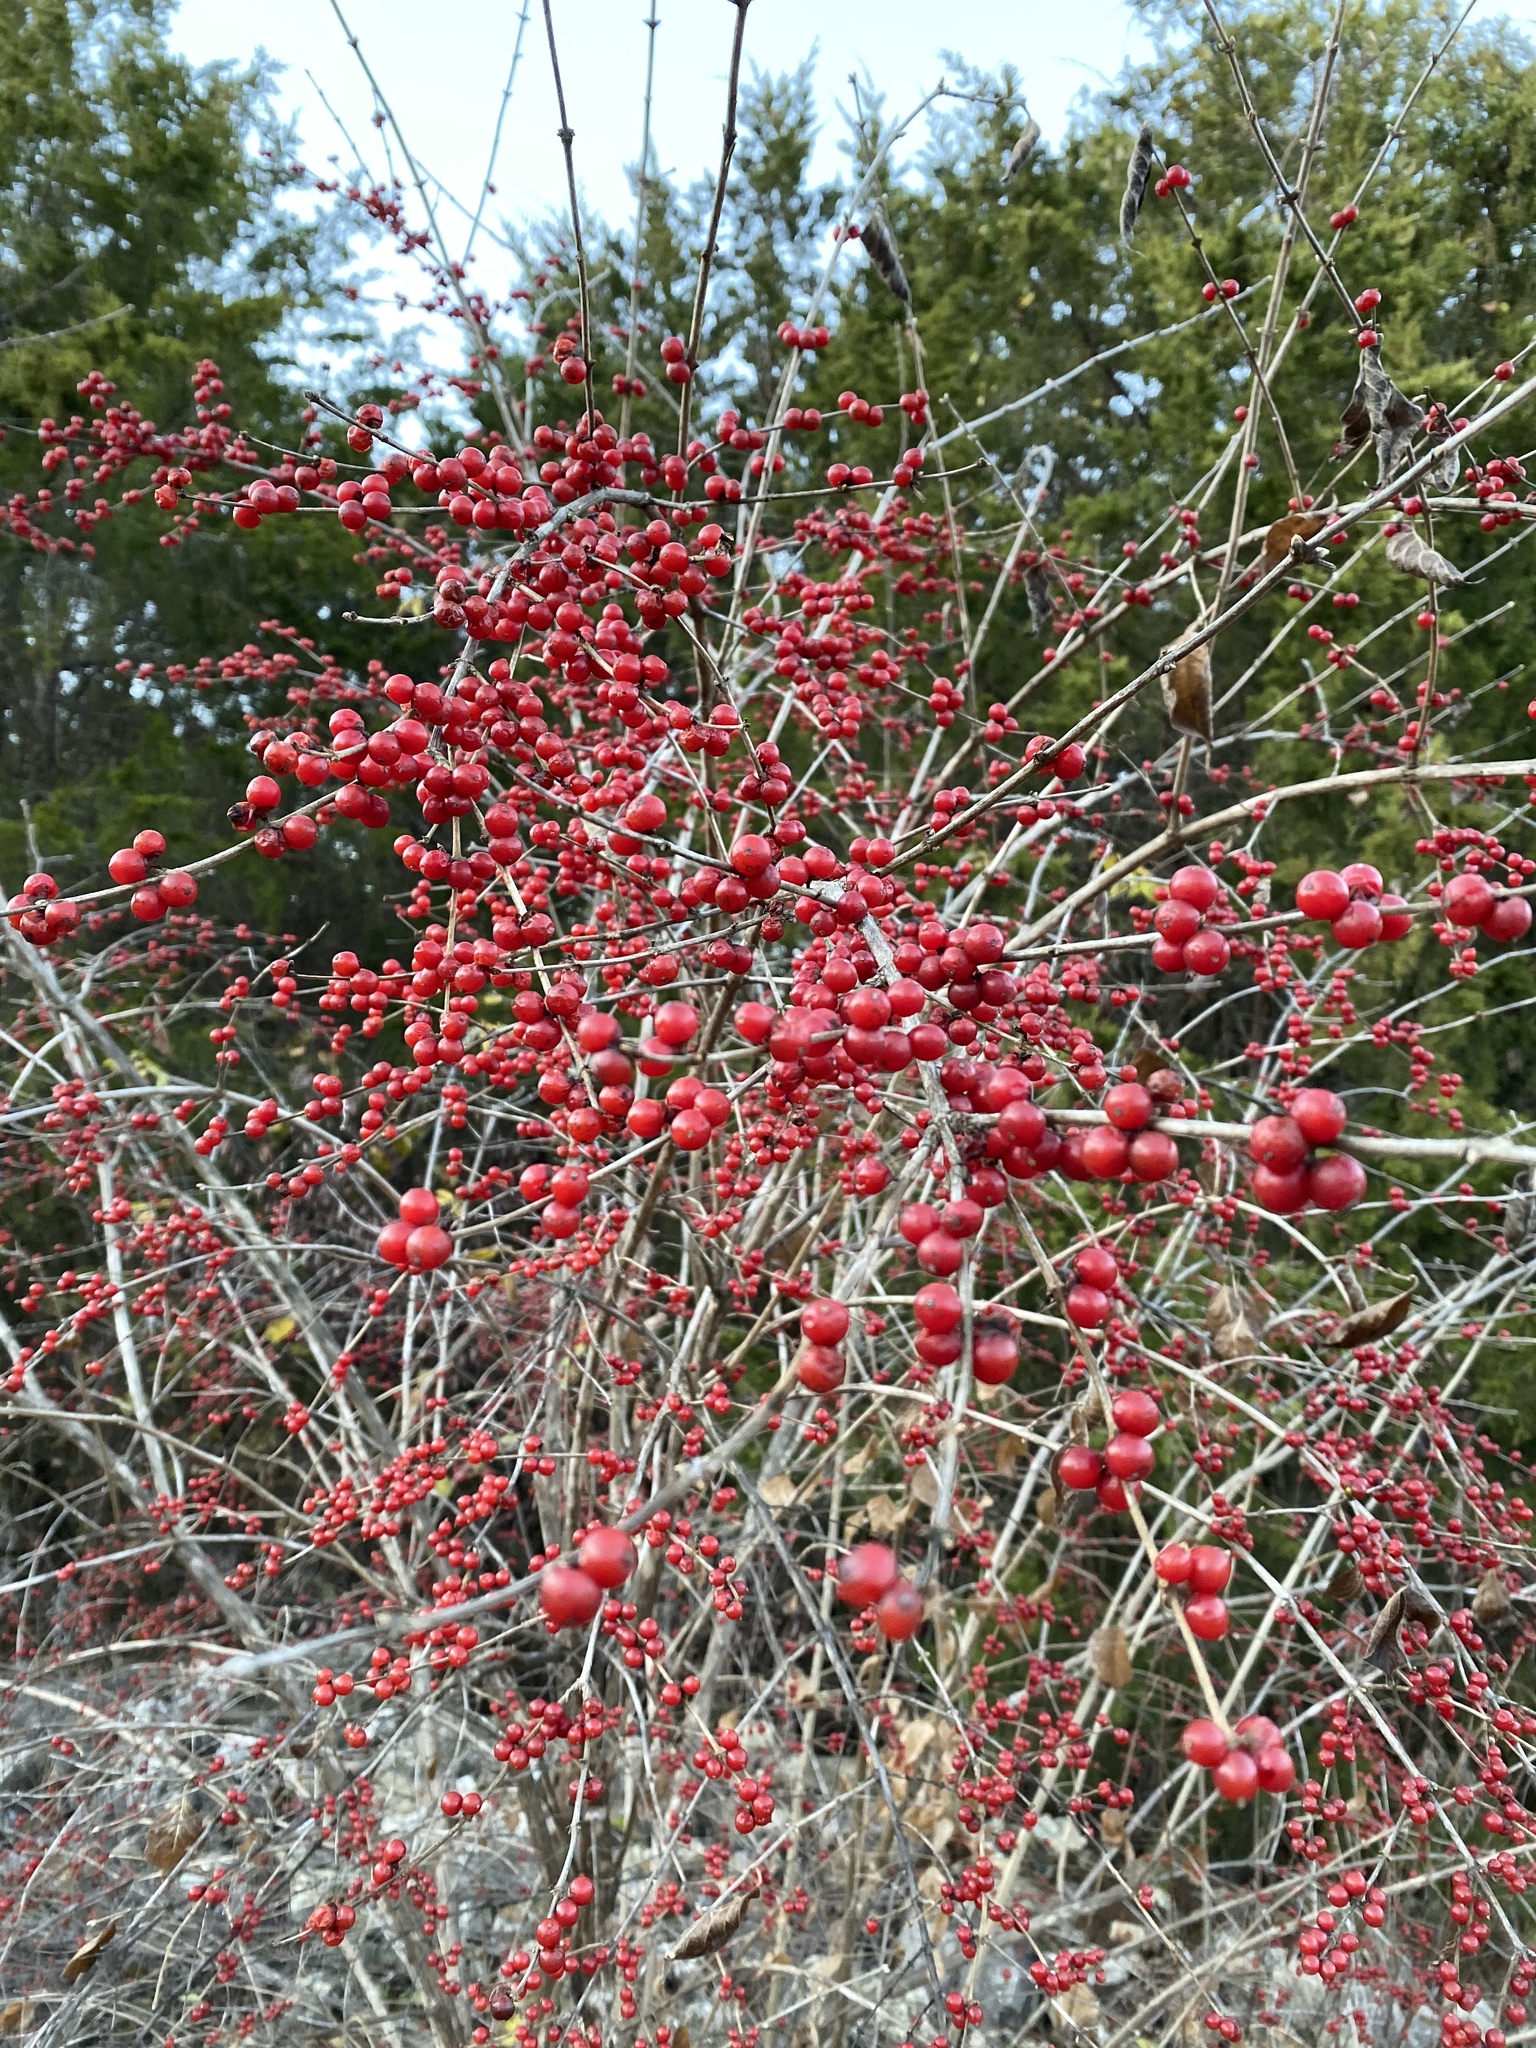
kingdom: Plantae
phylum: Tracheophyta
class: Magnoliopsida
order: Aquifoliales
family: Aquifoliaceae
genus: Ilex
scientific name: Ilex decidua
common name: Possum-haw
